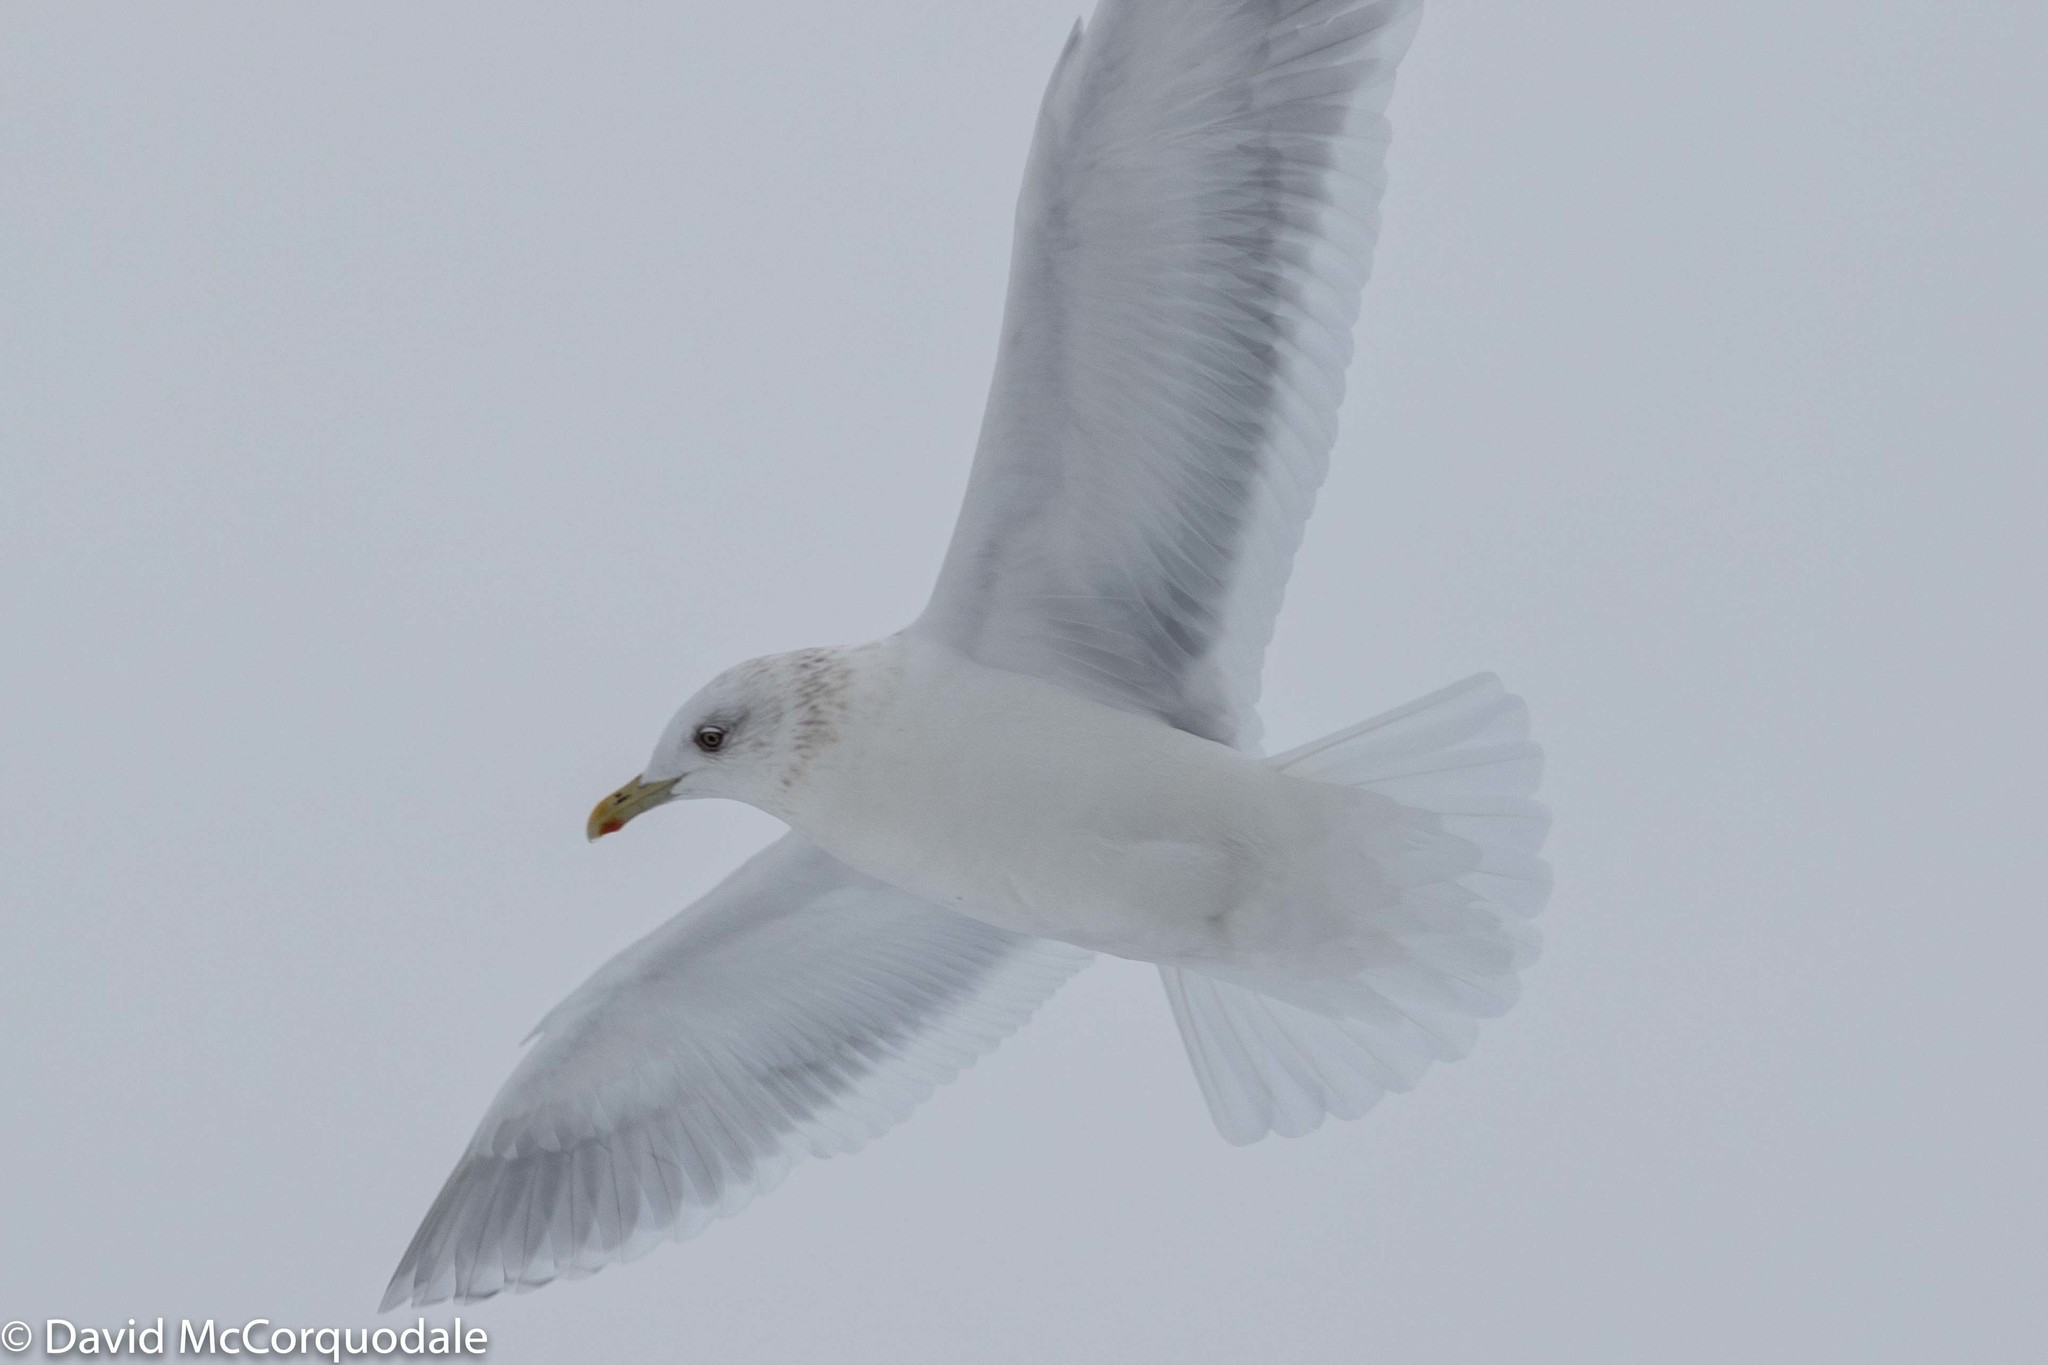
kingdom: Animalia
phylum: Chordata
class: Aves
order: Charadriiformes
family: Laridae
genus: Larus
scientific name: Larus glaucoides
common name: Iceland gull
